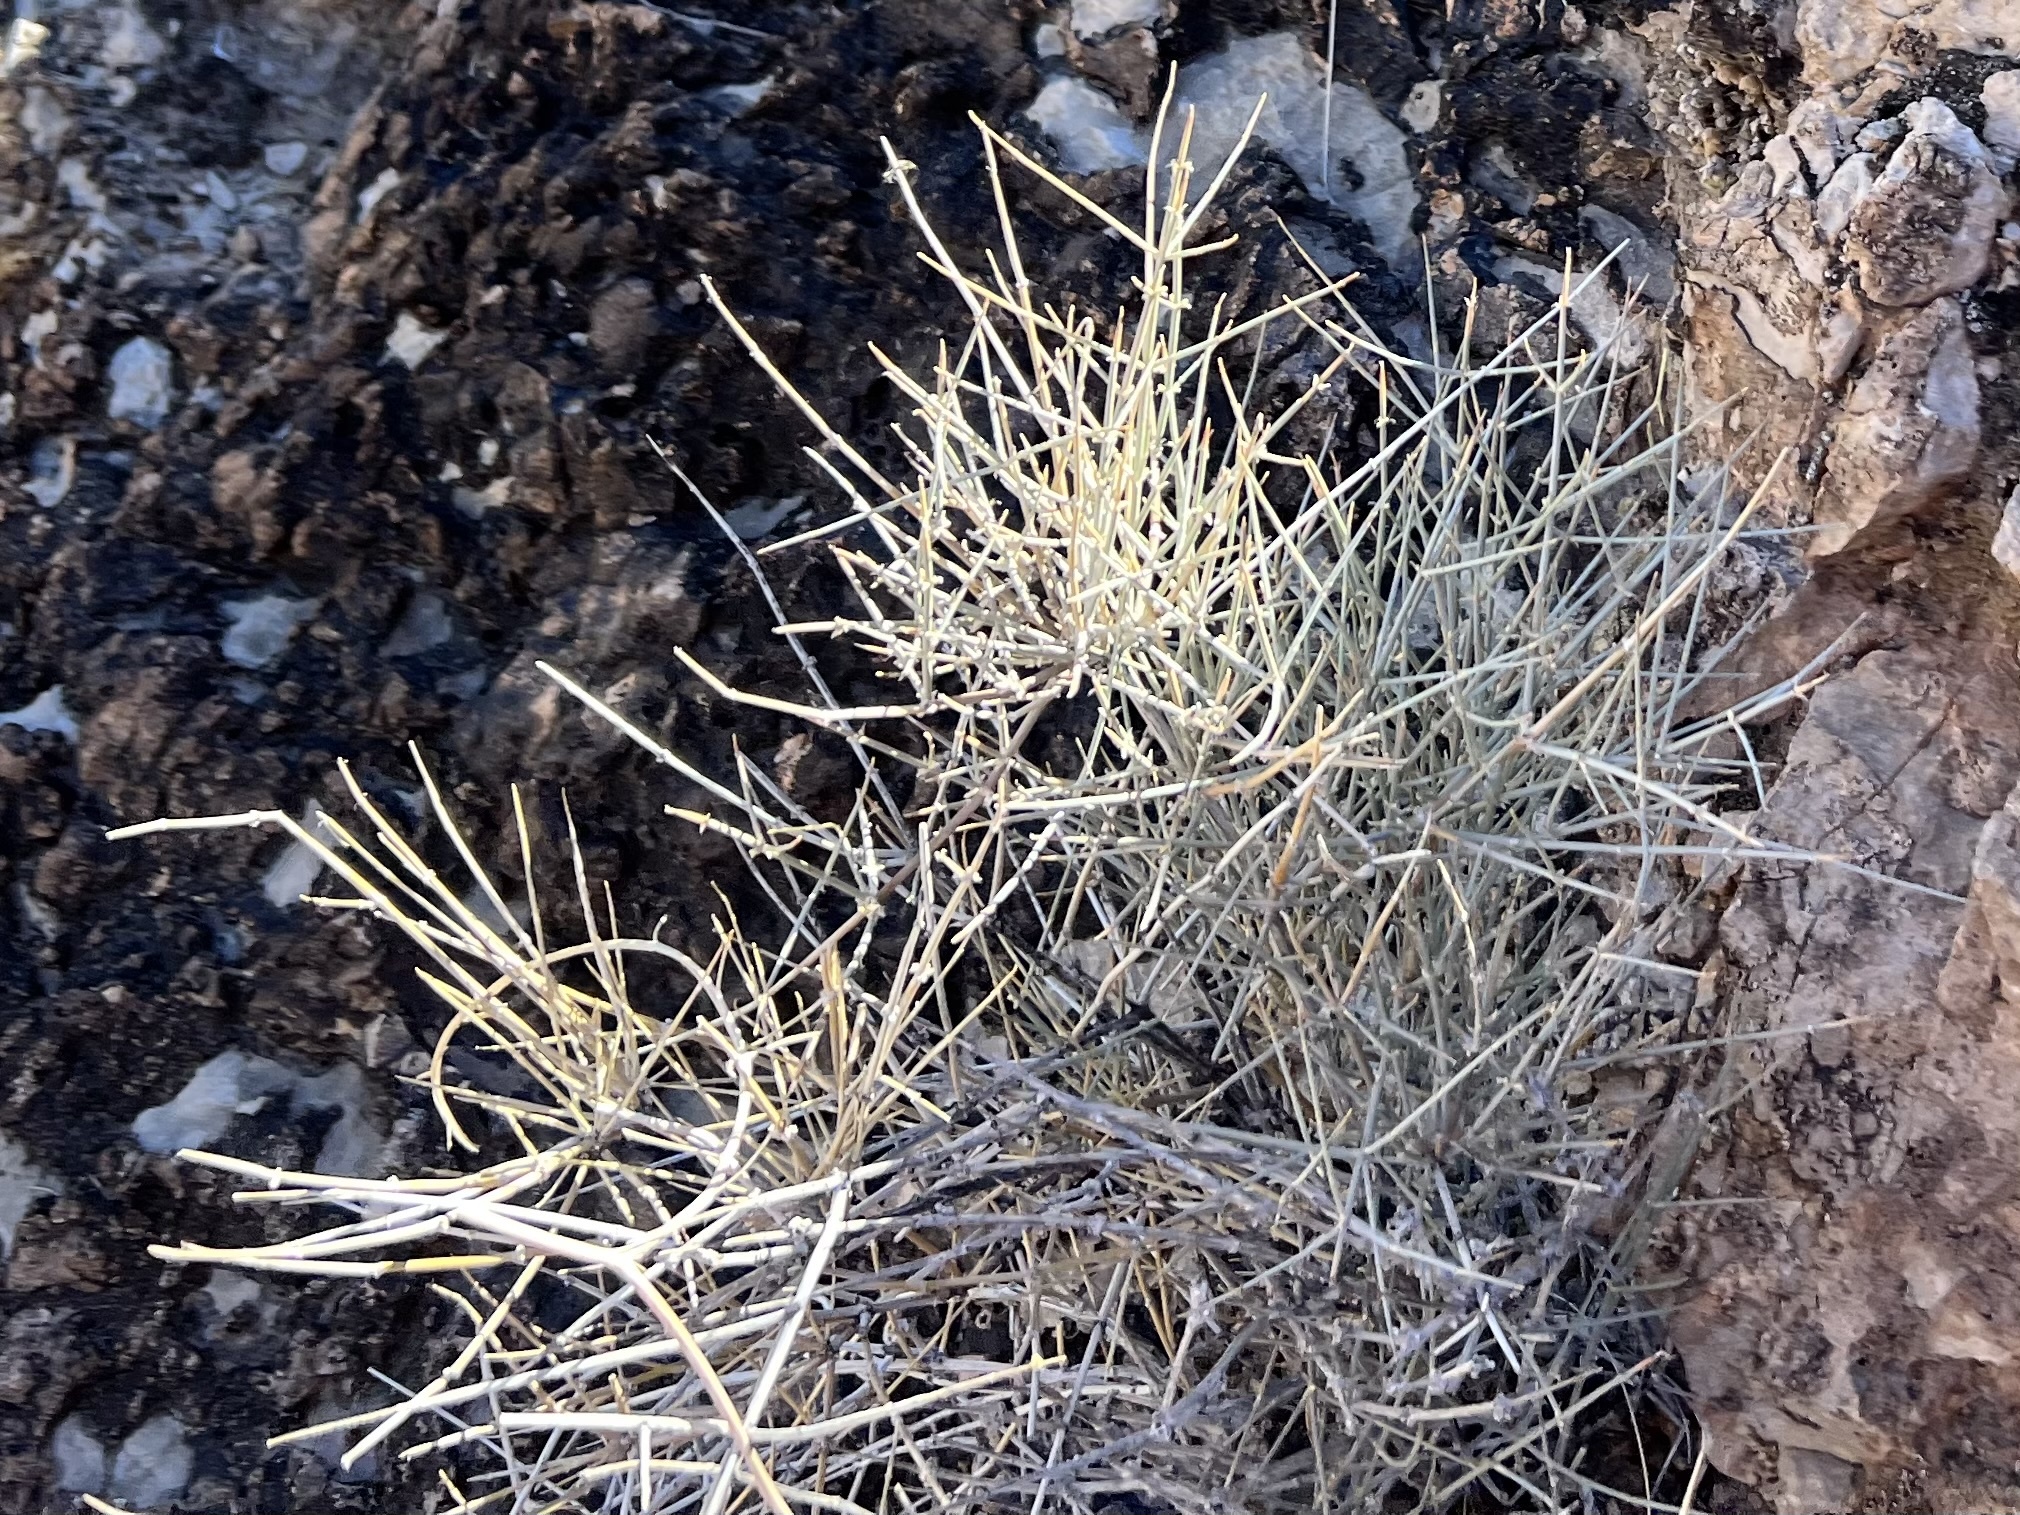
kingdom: Plantae
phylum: Tracheophyta
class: Gnetopsida
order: Ephedrales
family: Ephedraceae
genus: Ephedra
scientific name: Ephedra nevadensis
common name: Gray ephedra
